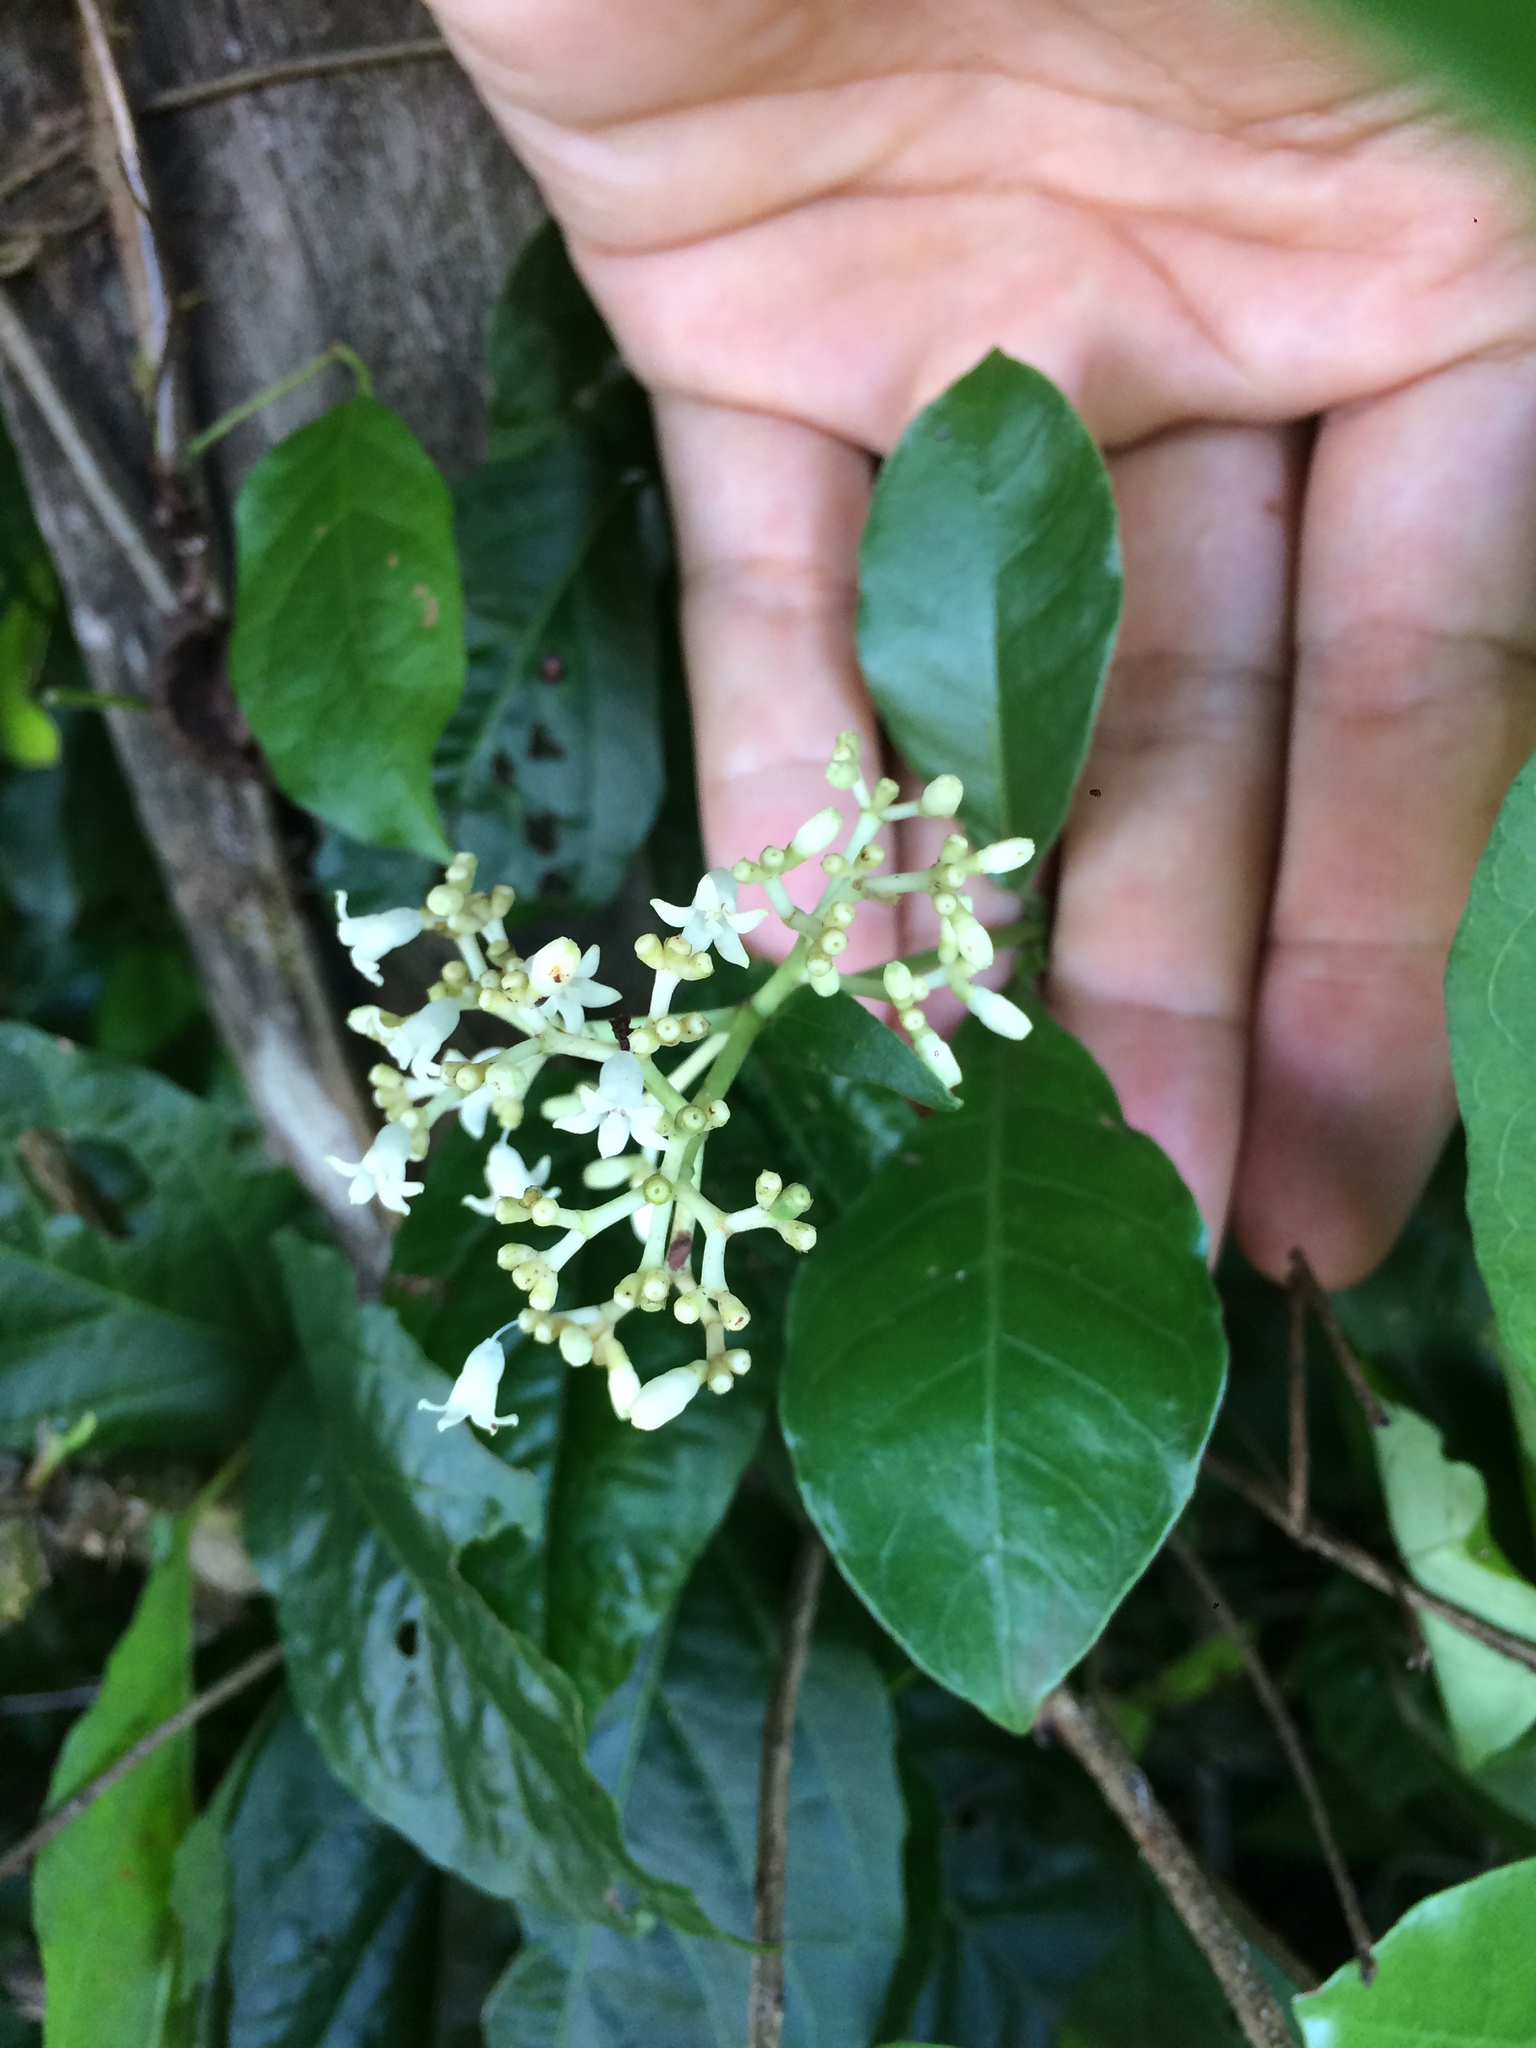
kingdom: Plantae
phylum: Tracheophyta
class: Magnoliopsida
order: Gentianales
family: Rubiaceae
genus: Psychotria
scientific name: Psychotria carthagenensis
